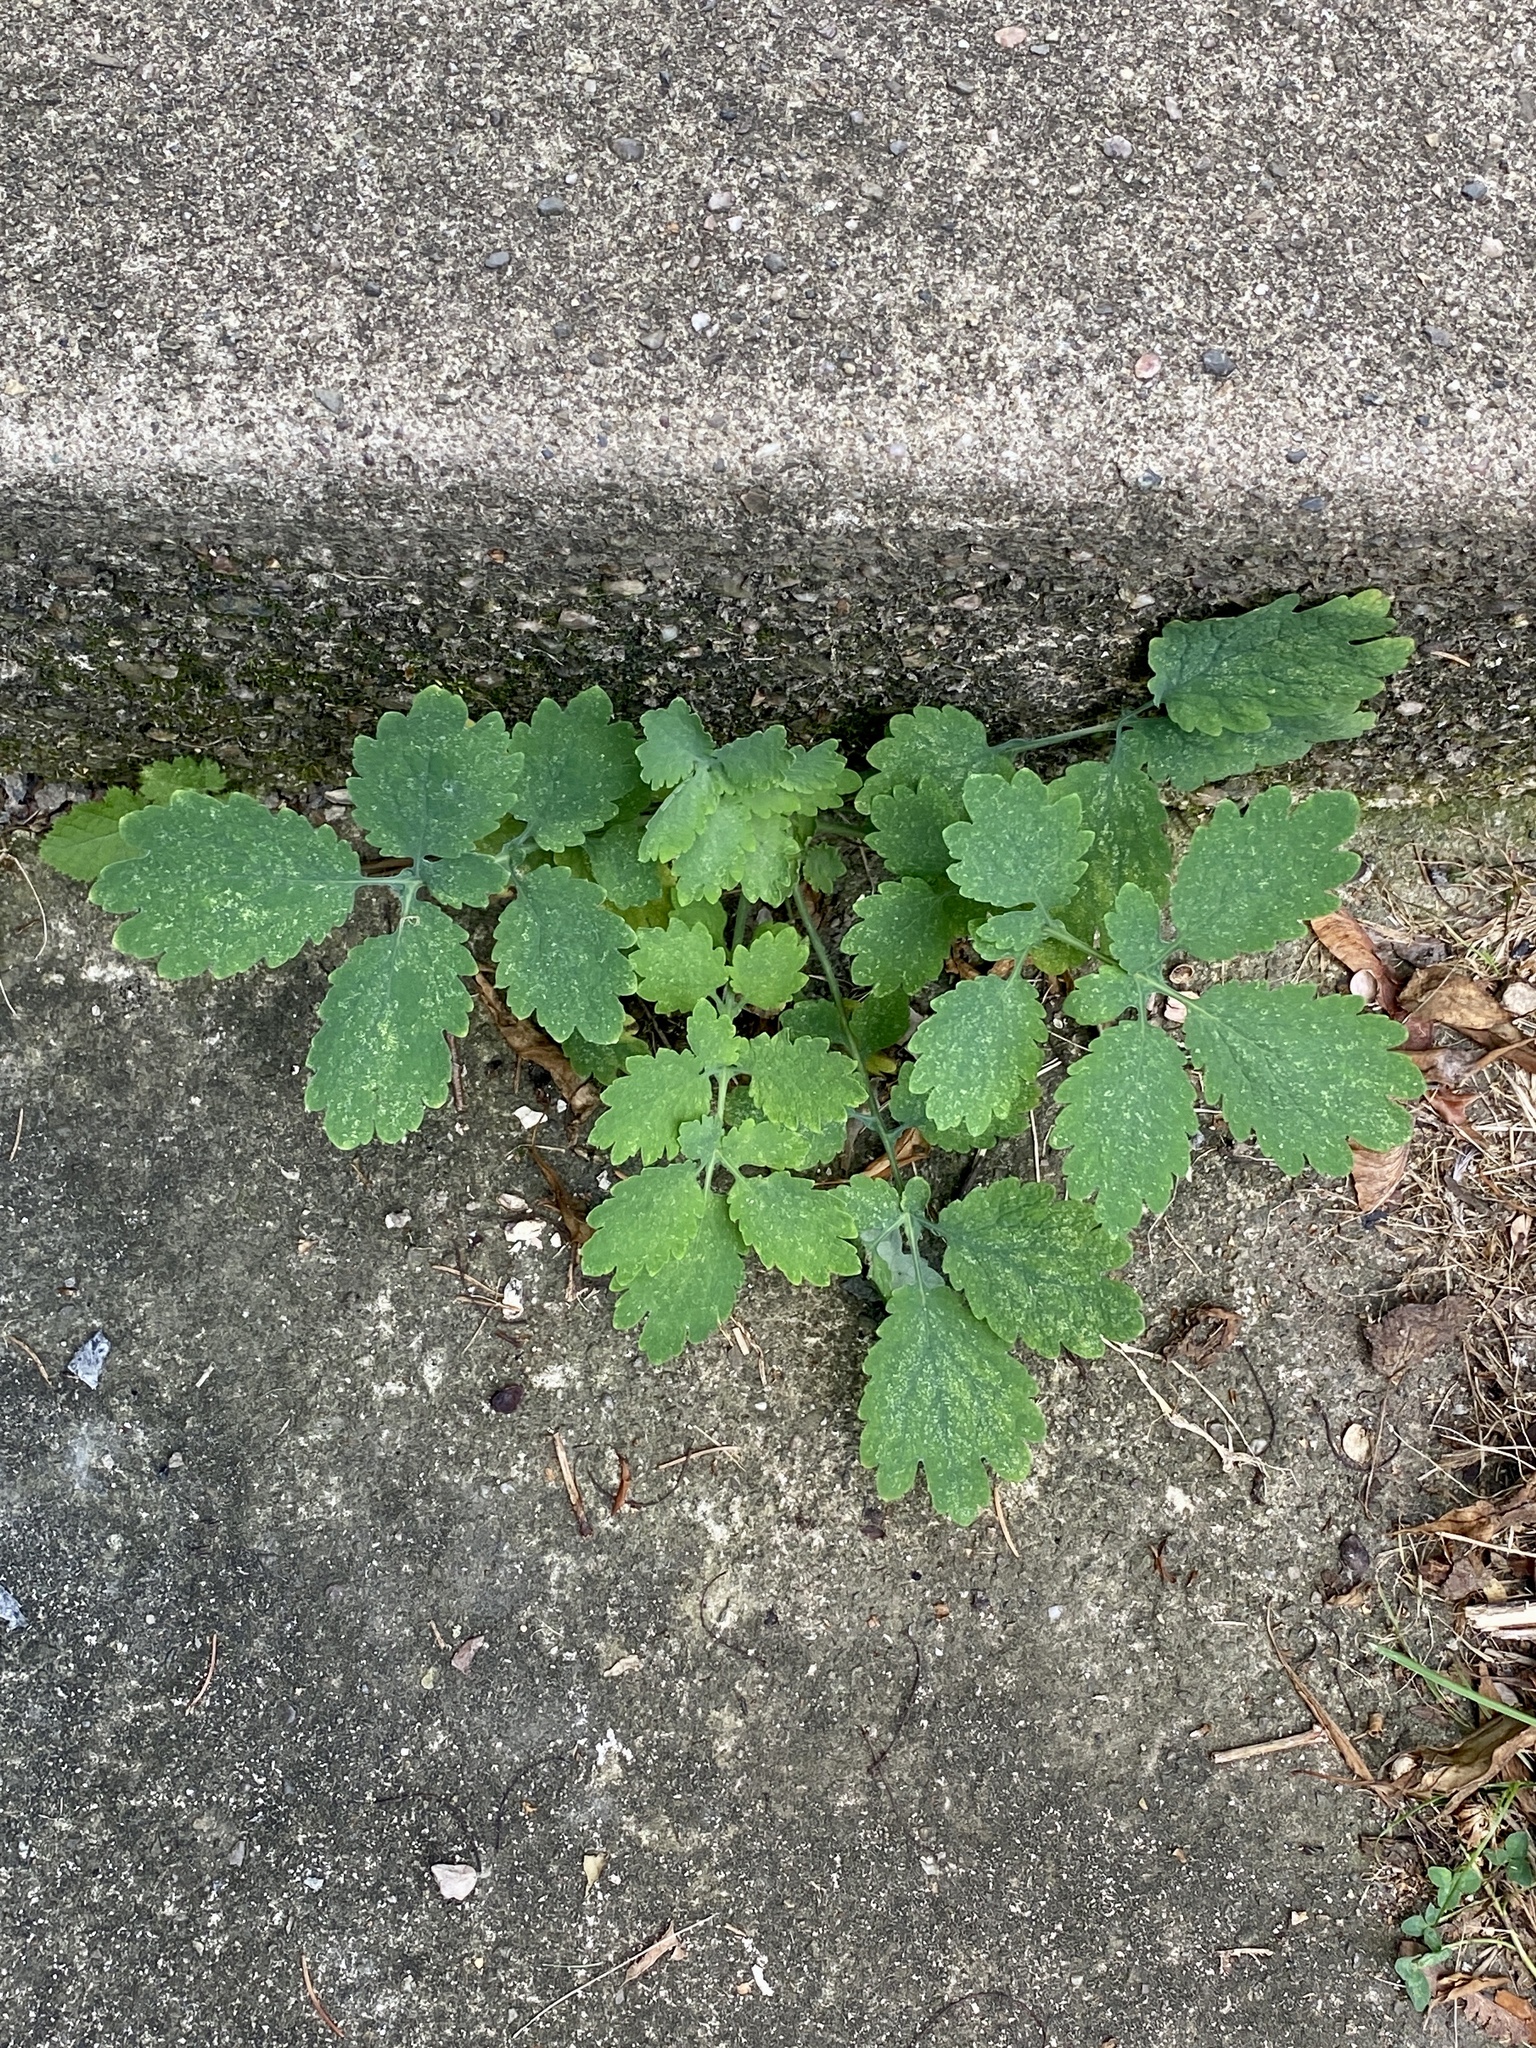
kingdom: Plantae
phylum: Tracheophyta
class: Magnoliopsida
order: Ranunculales
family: Papaveraceae
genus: Chelidonium
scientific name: Chelidonium majus
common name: Greater celandine
